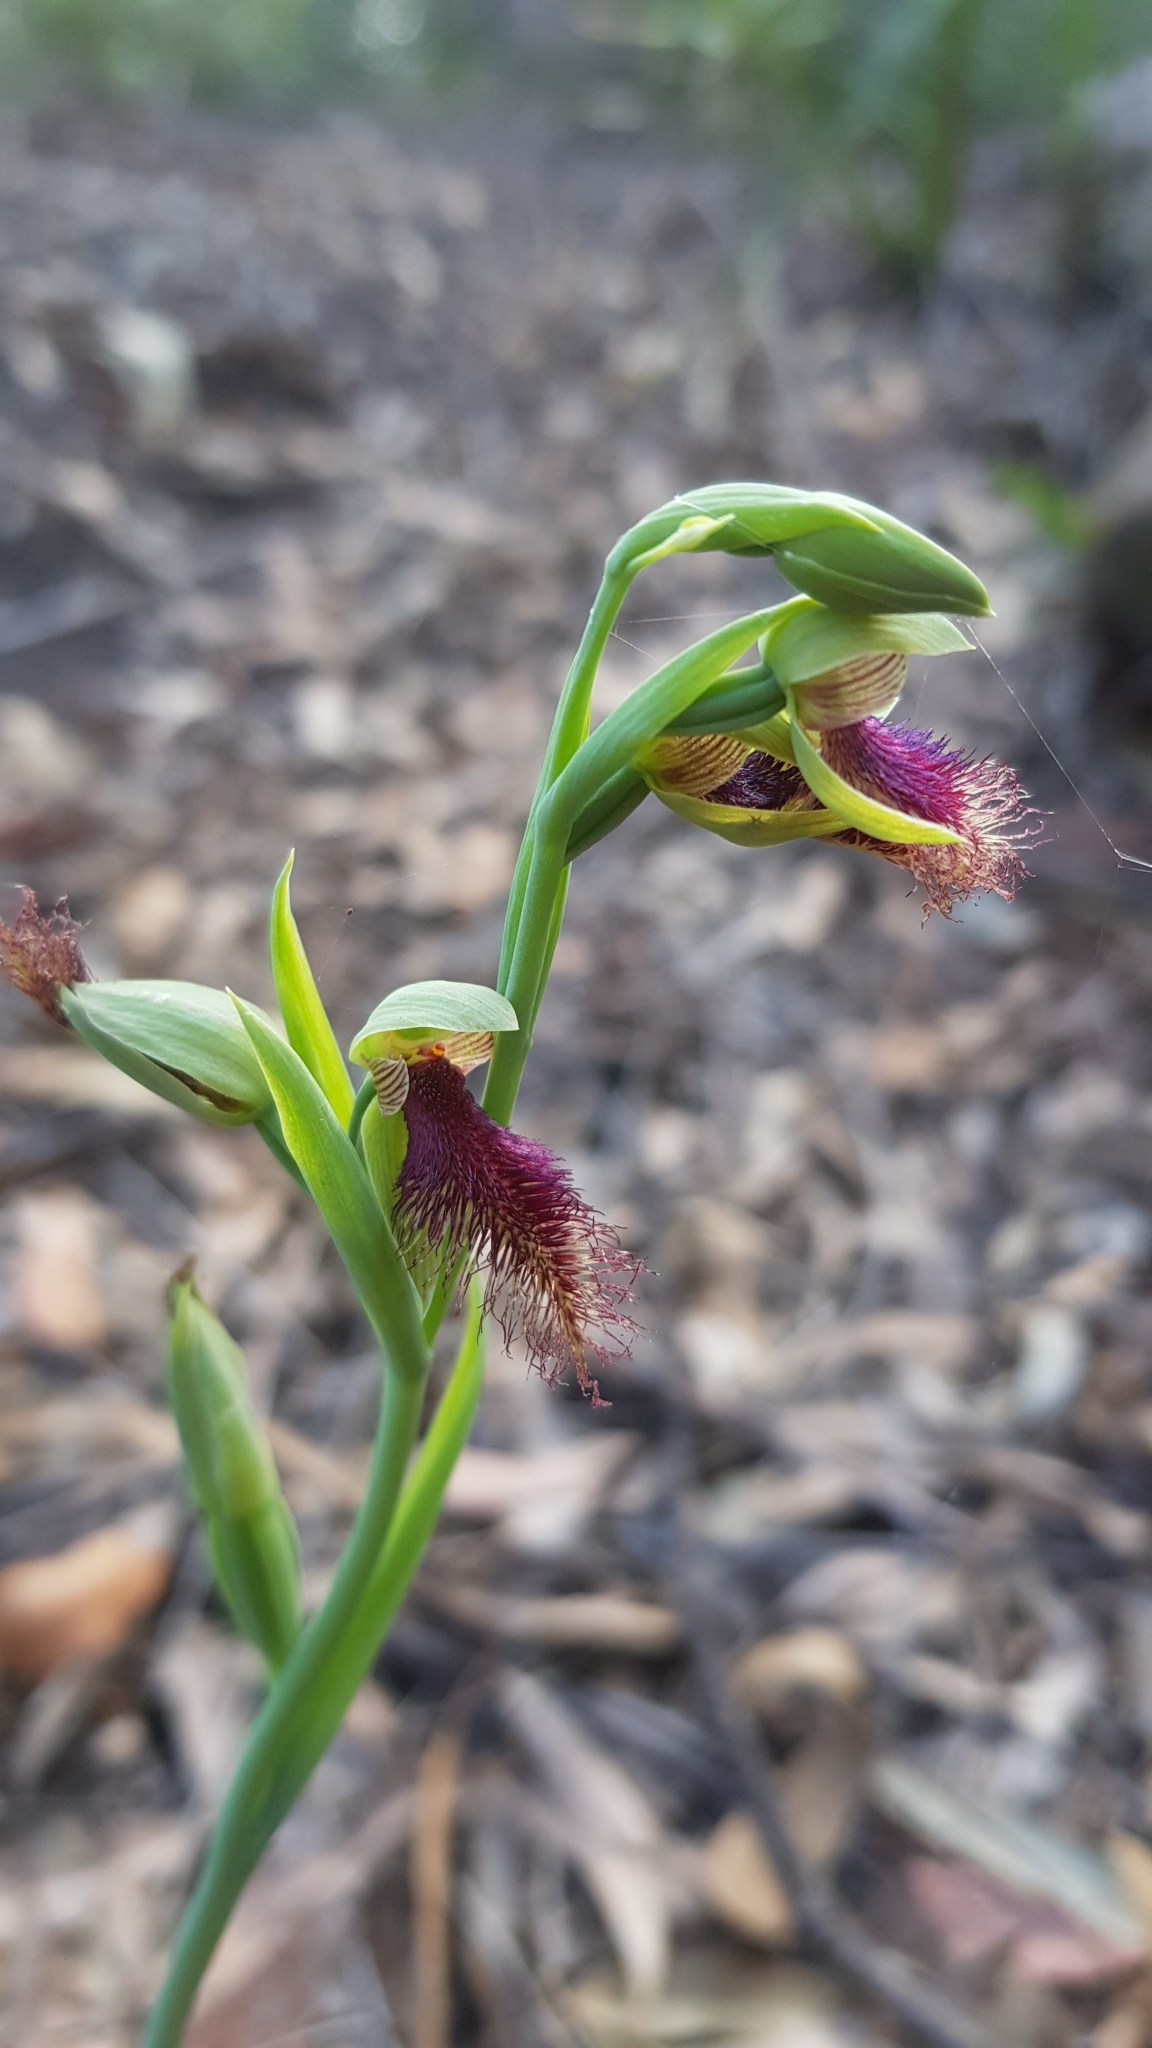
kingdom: Plantae
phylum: Tracheophyta
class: Liliopsida
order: Asparagales
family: Orchidaceae
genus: Calochilus
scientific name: Calochilus robertsonii
